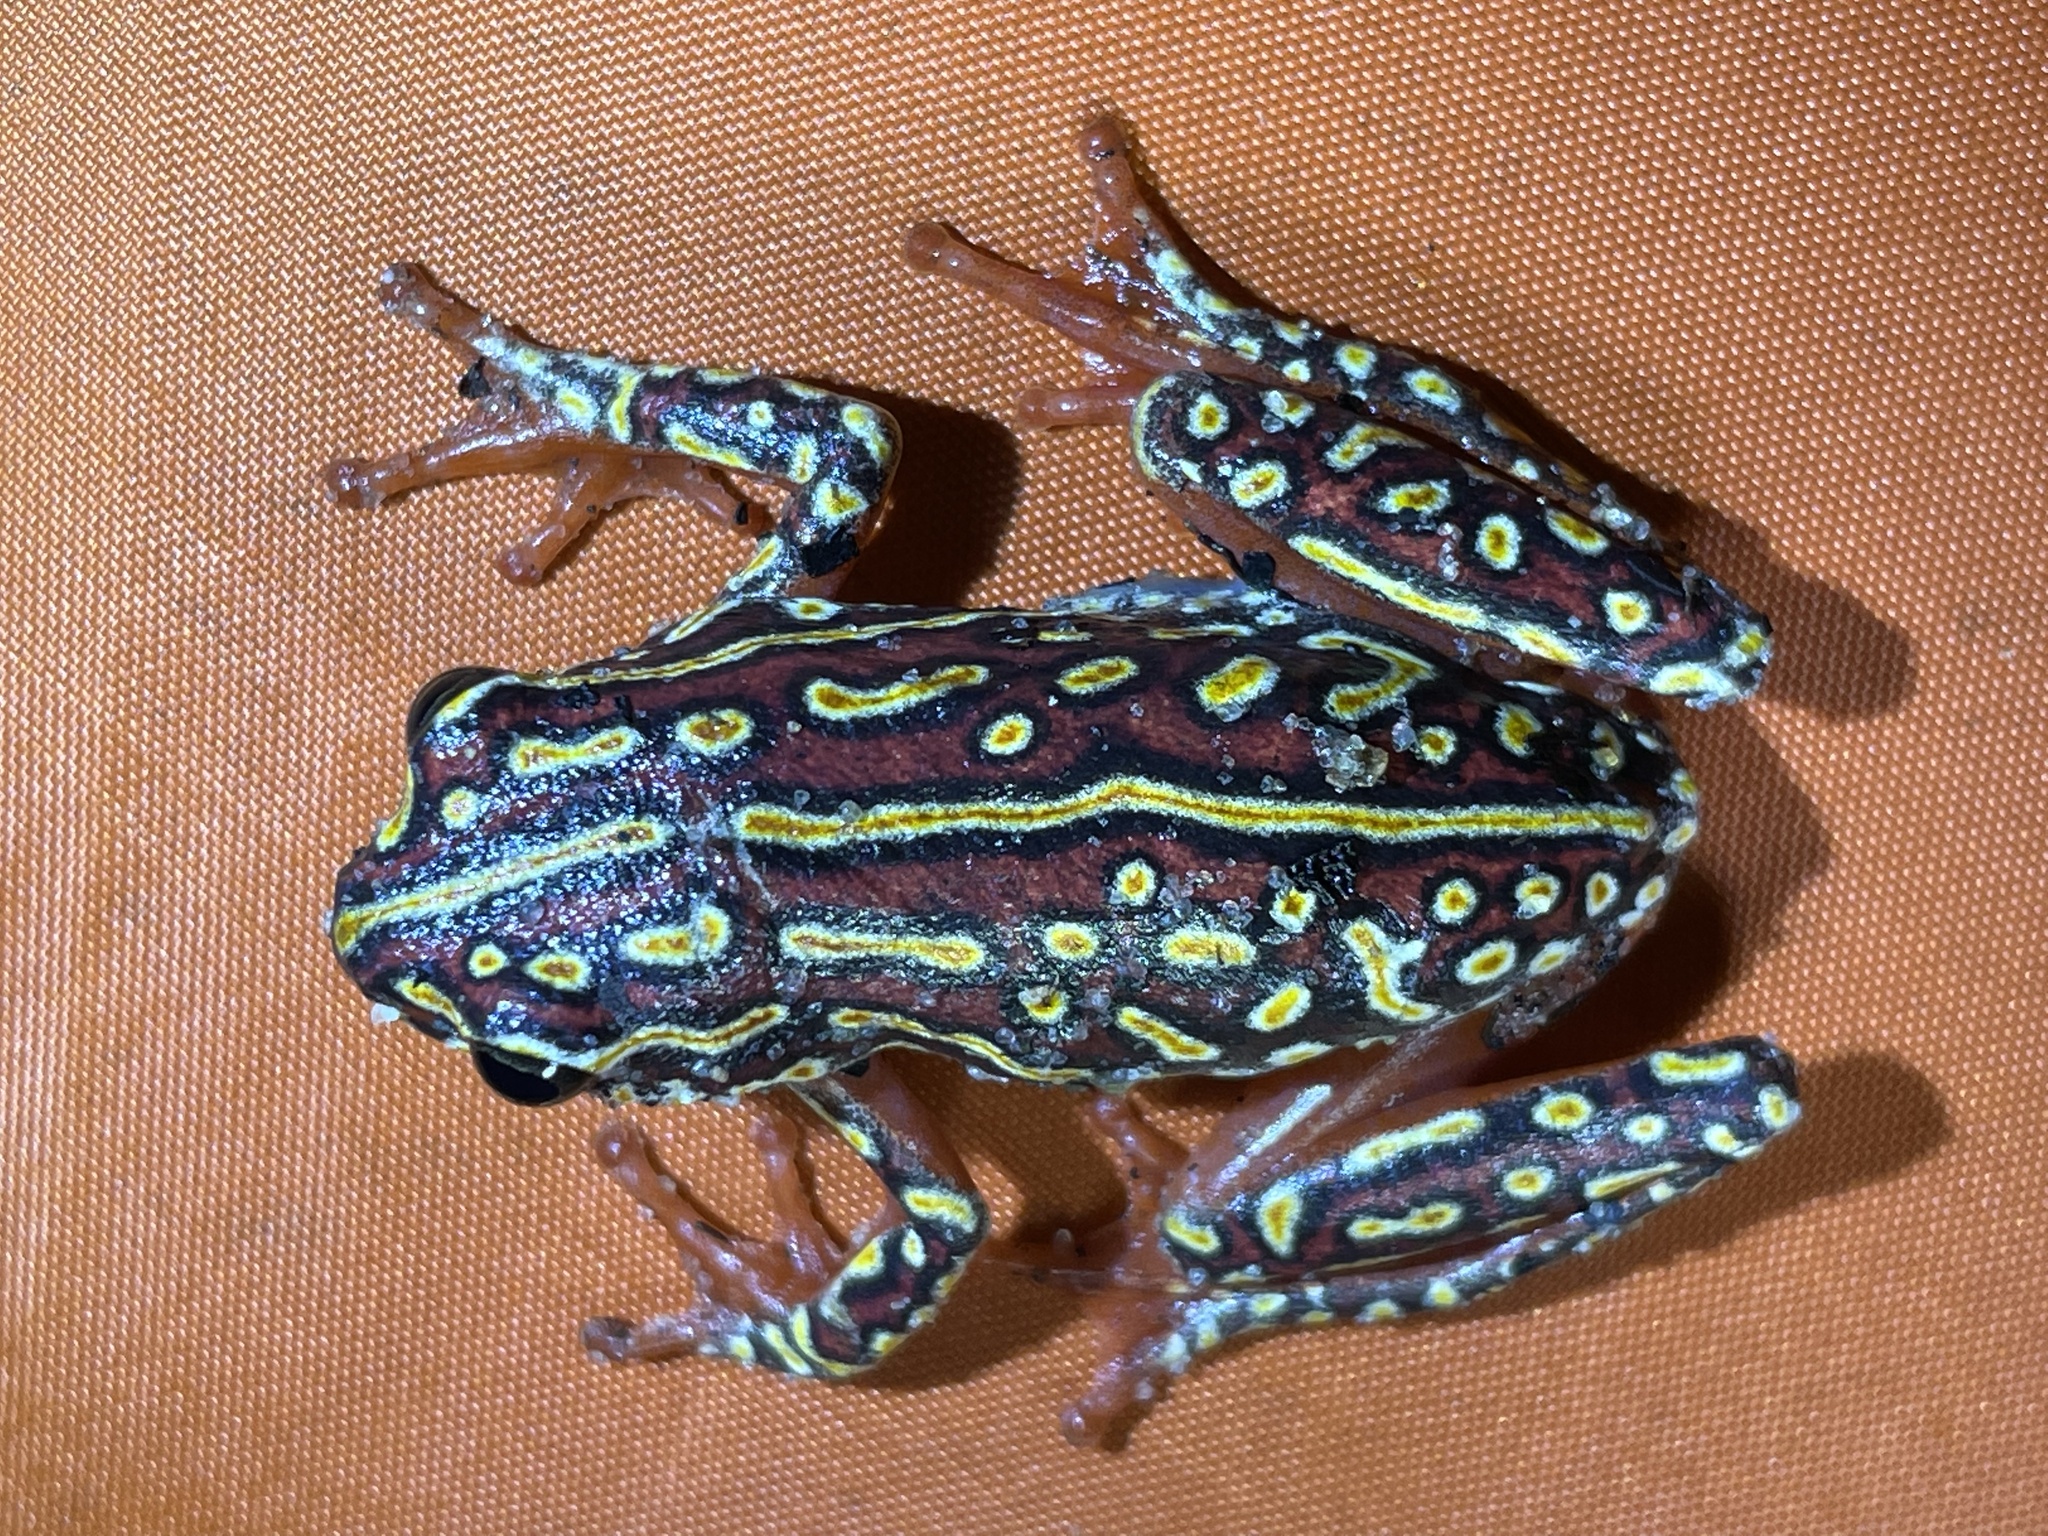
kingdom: Animalia
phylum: Chordata
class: Amphibia
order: Anura
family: Hyperoliidae
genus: Hyperolius
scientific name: Hyperolius parallelus
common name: Angolan reed frog
